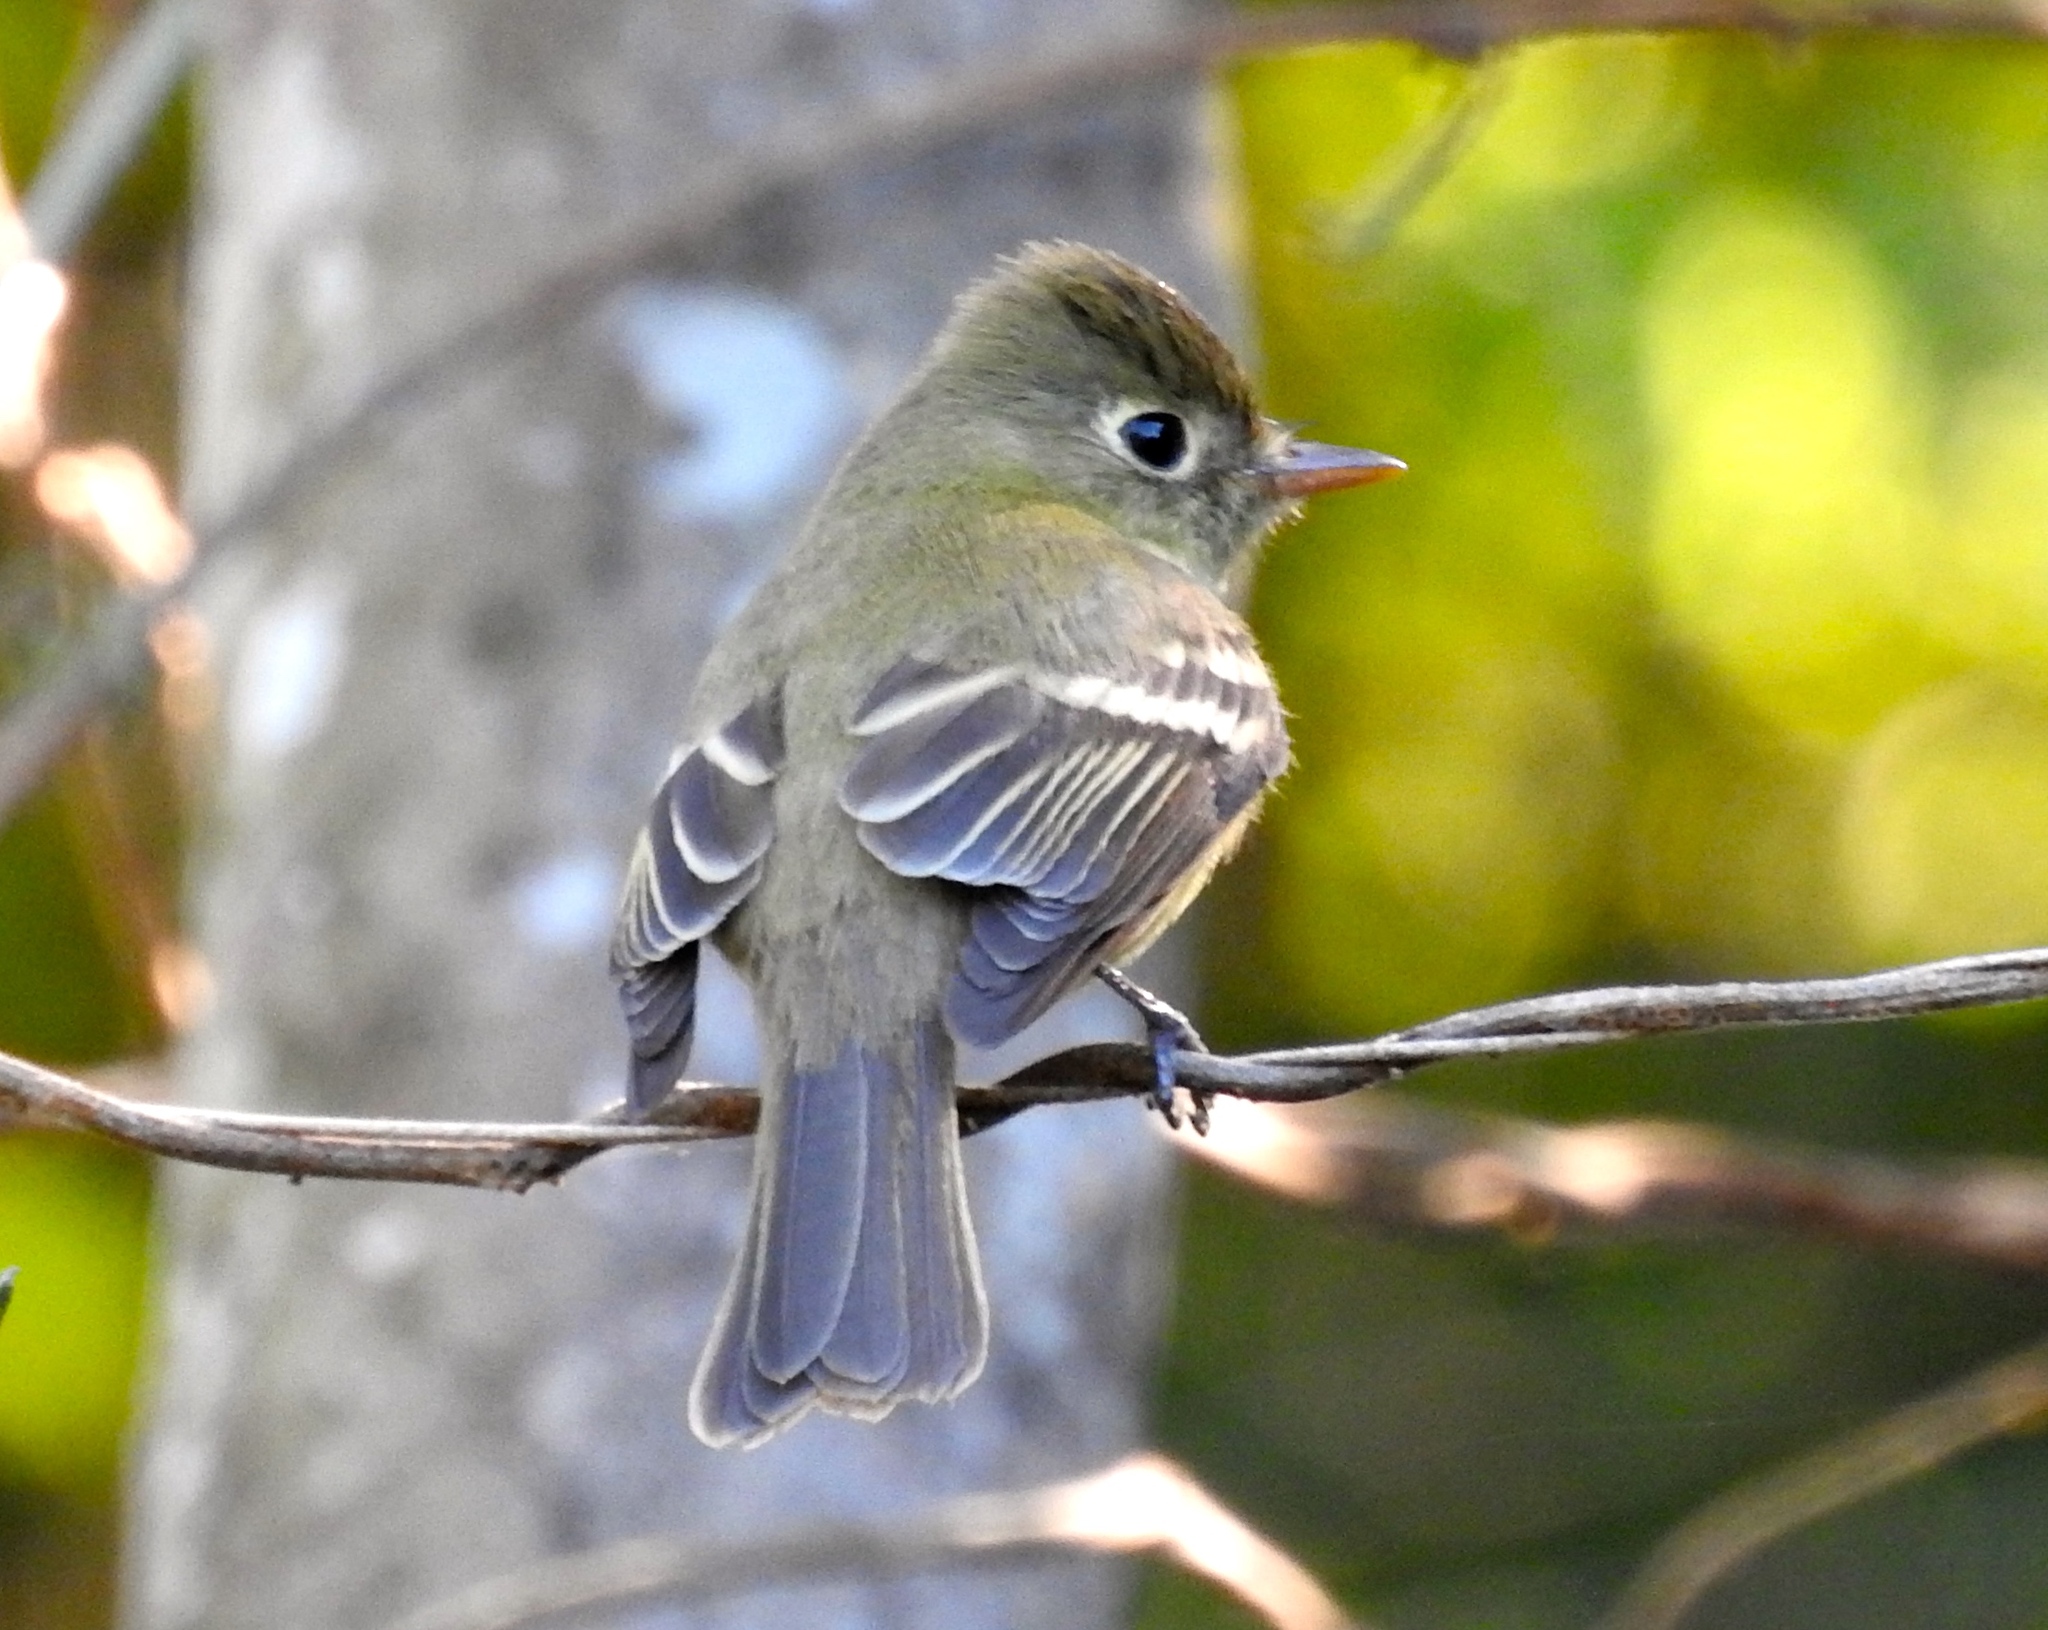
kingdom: Animalia
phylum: Chordata
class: Aves
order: Passeriformes
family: Tyrannidae
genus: Empidonax
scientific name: Empidonax
